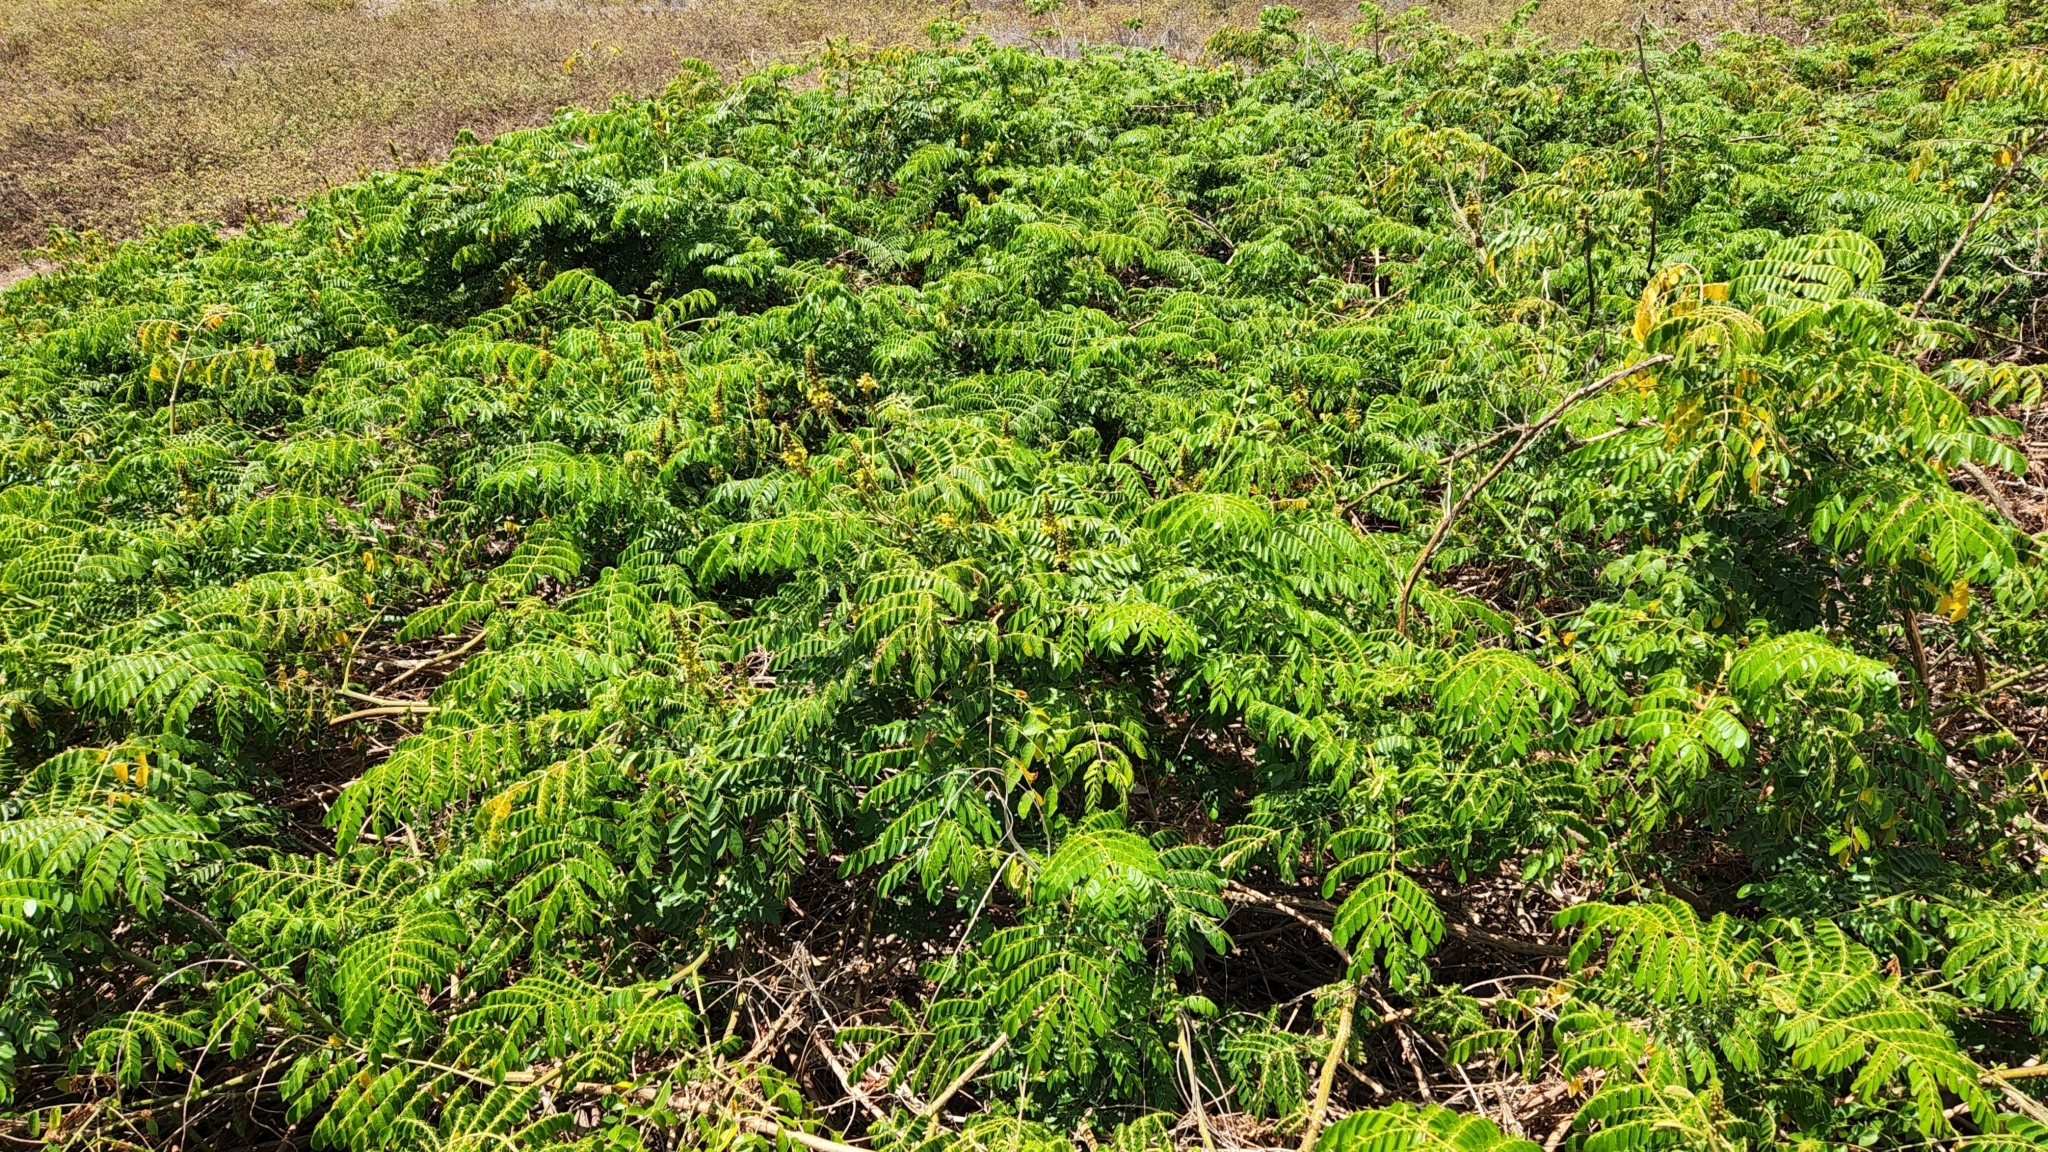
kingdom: Plantae
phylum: Tracheophyta
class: Magnoliopsida
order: Fabales
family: Fabaceae
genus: Guilandina
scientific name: Guilandina bonduc
